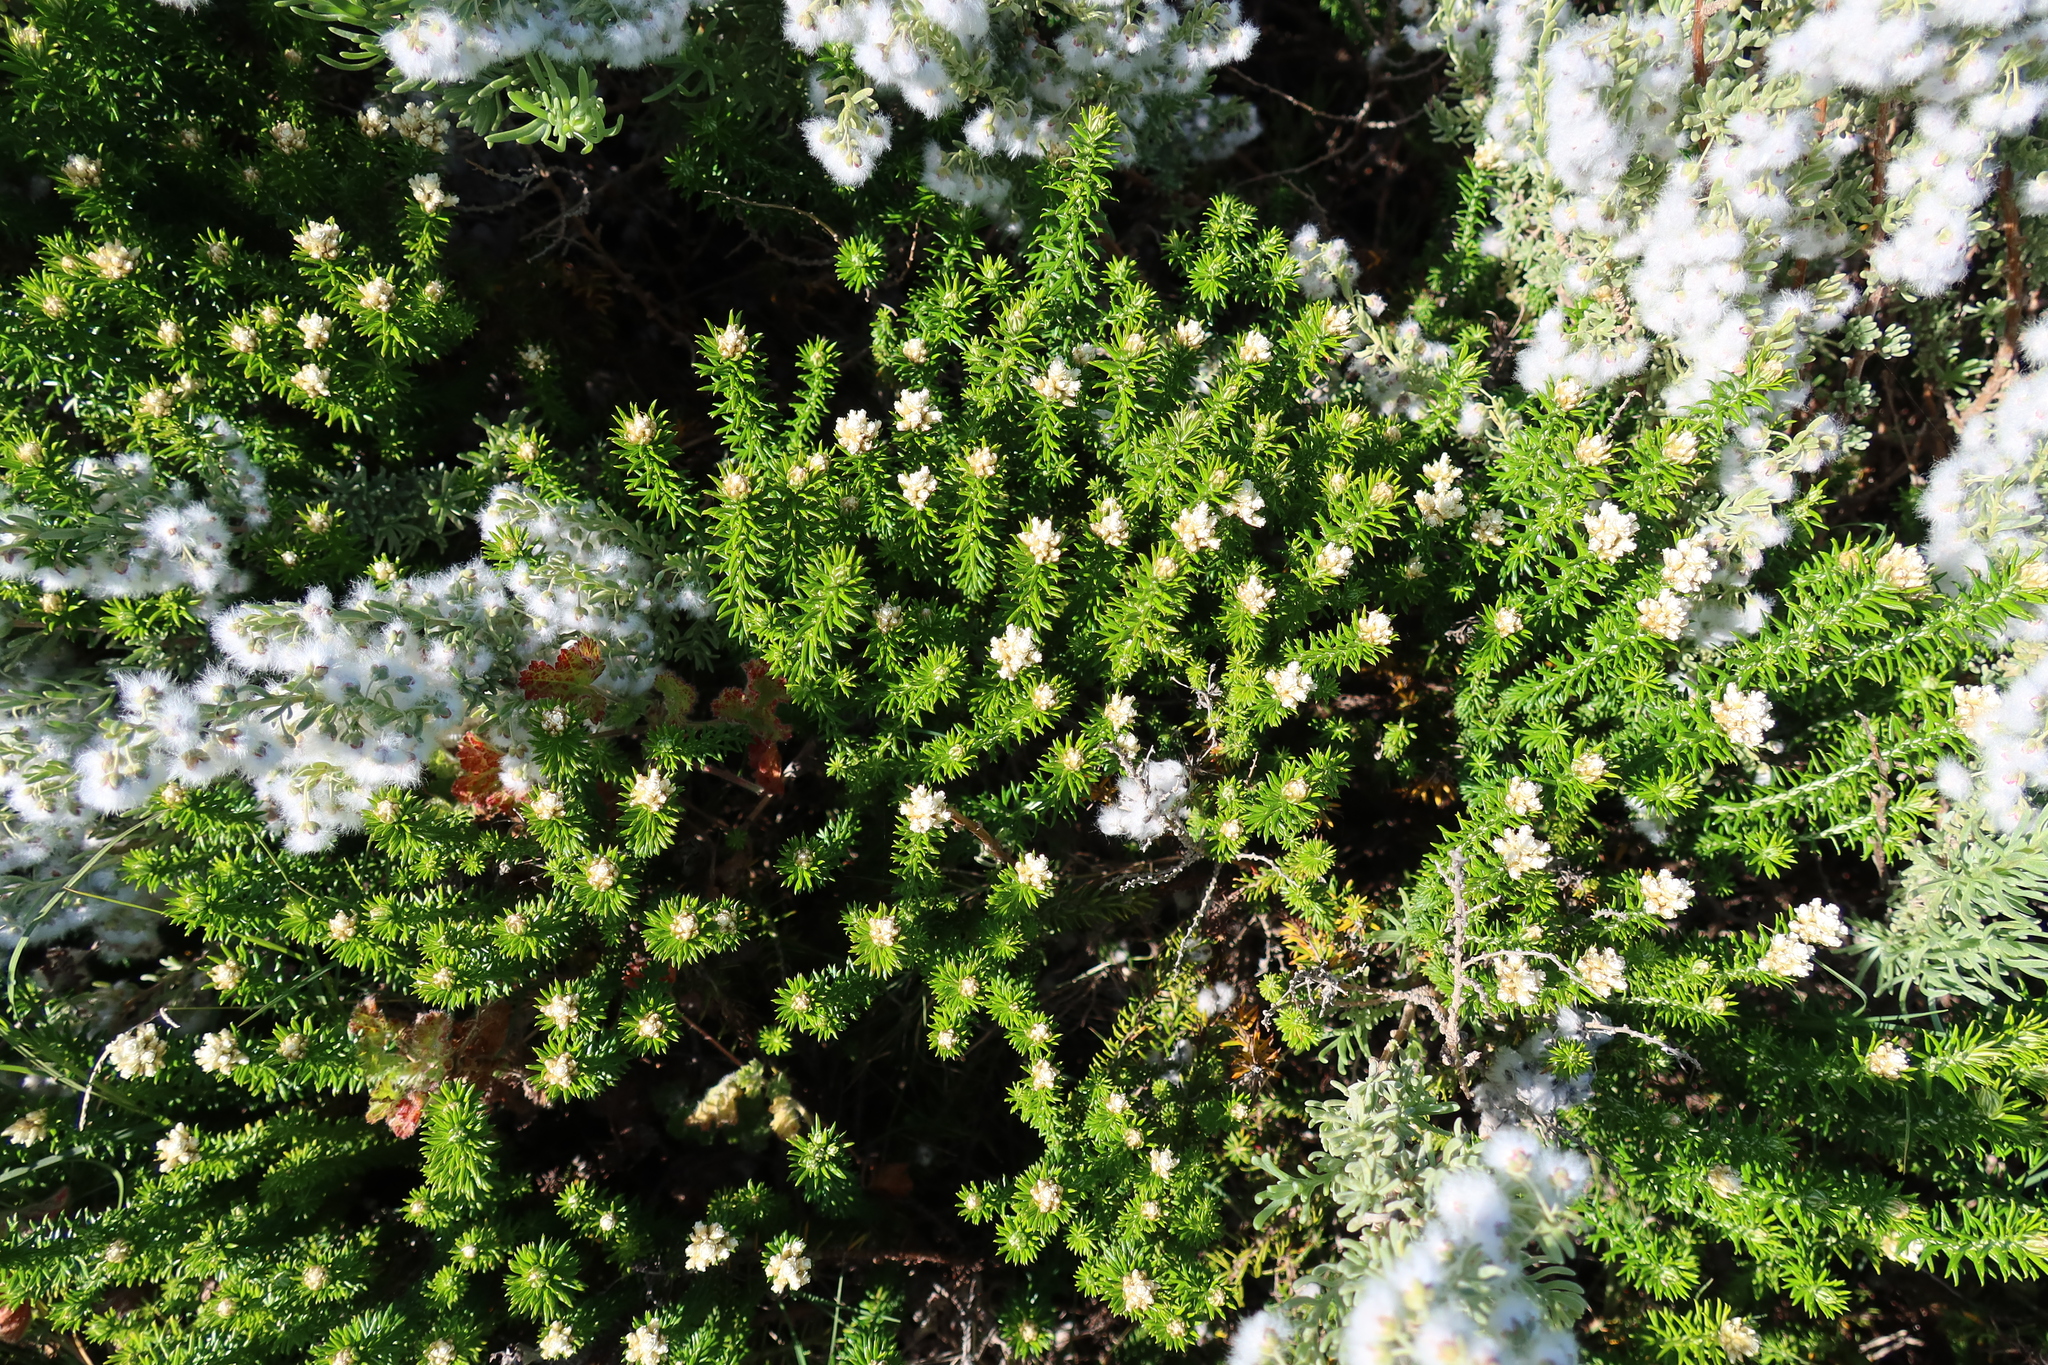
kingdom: Plantae
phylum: Tracheophyta
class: Magnoliopsida
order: Asterales
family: Asteraceae
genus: Helichrysum
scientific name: Helichrysum teretifolium
